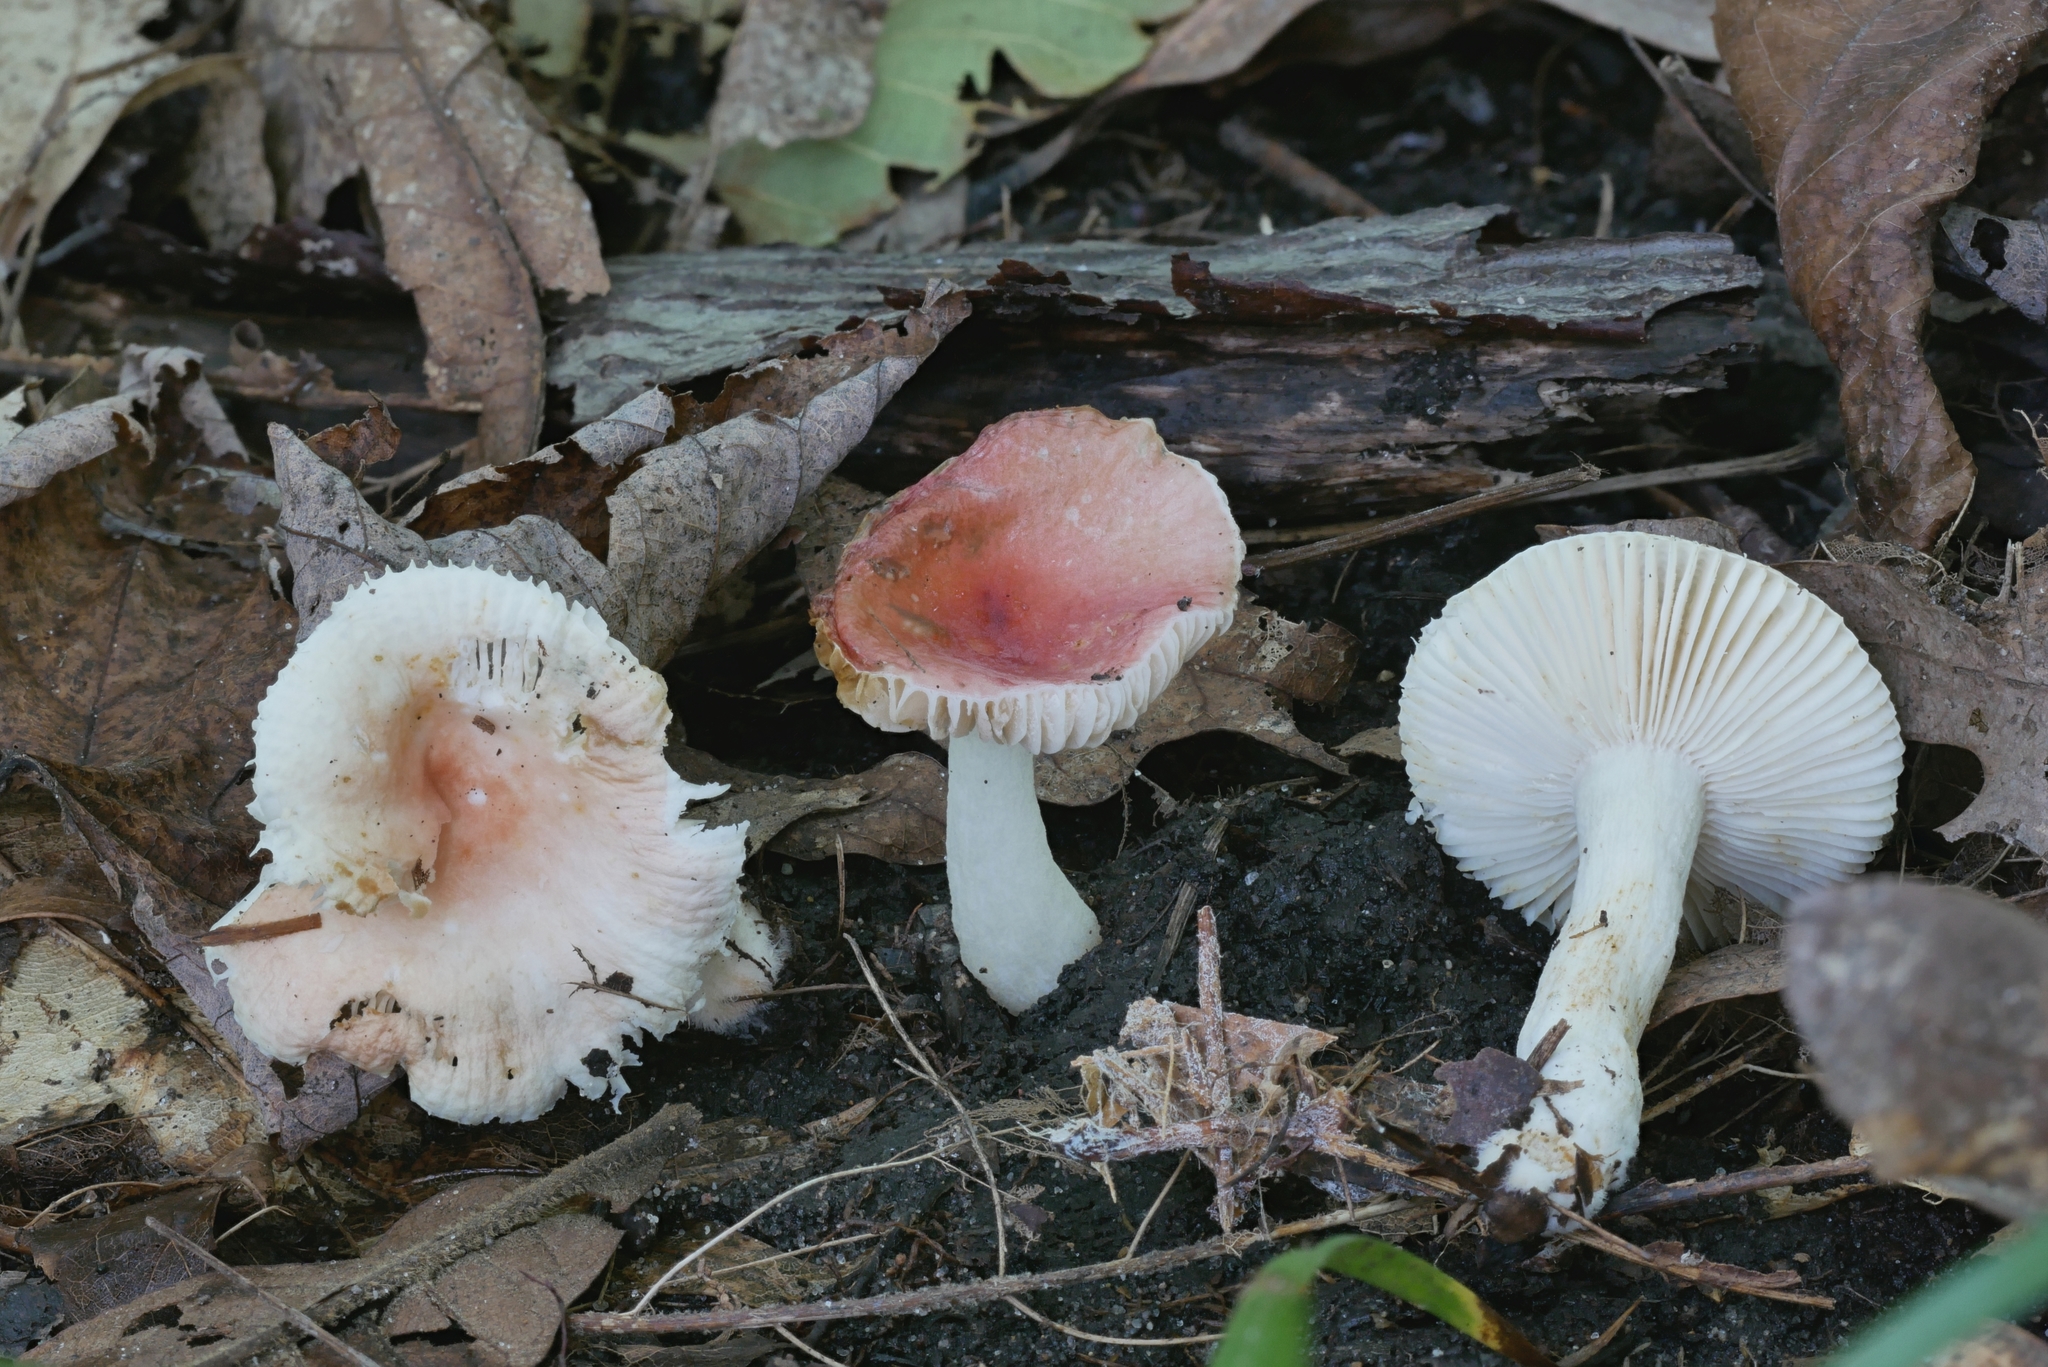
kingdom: Fungi
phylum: Basidiomycota
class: Agaricomycetes
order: Russulales
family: Russulaceae
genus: Russula
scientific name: Russula
